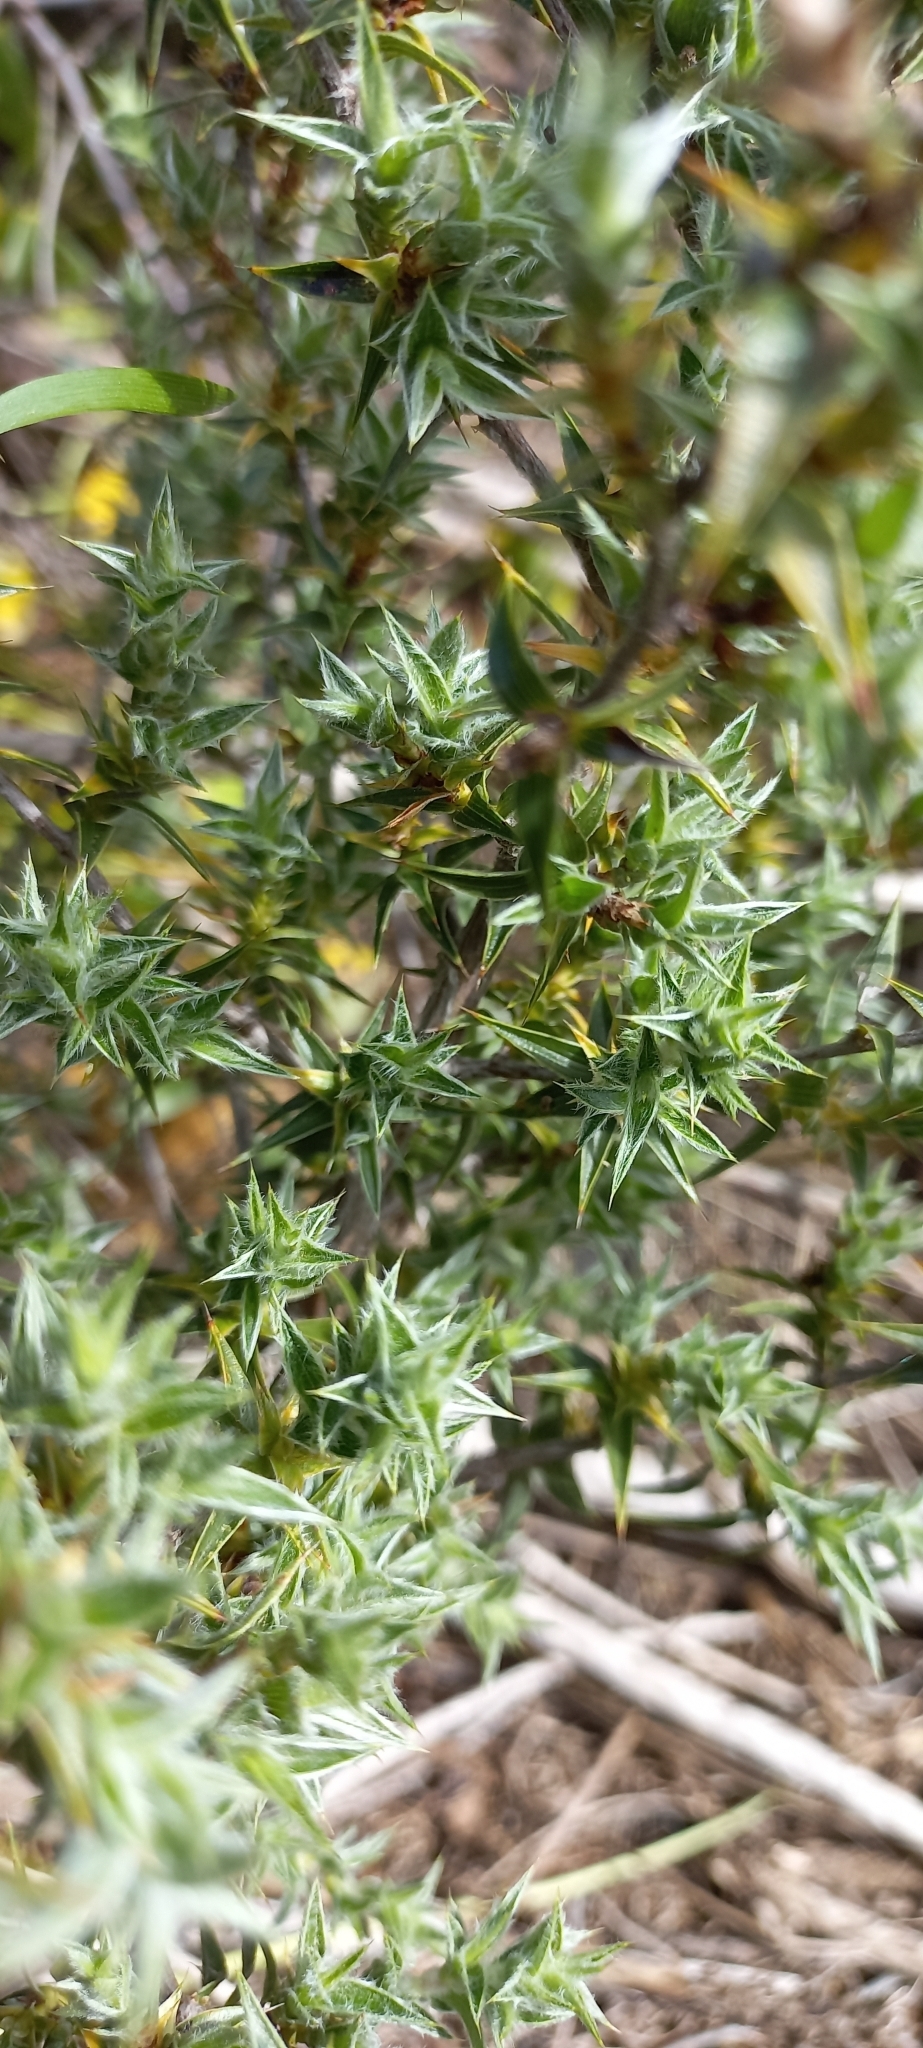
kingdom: Plantae
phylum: Tracheophyta
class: Magnoliopsida
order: Rosales
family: Rosaceae
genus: Cliffortia
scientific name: Cliffortia ruscifolia
